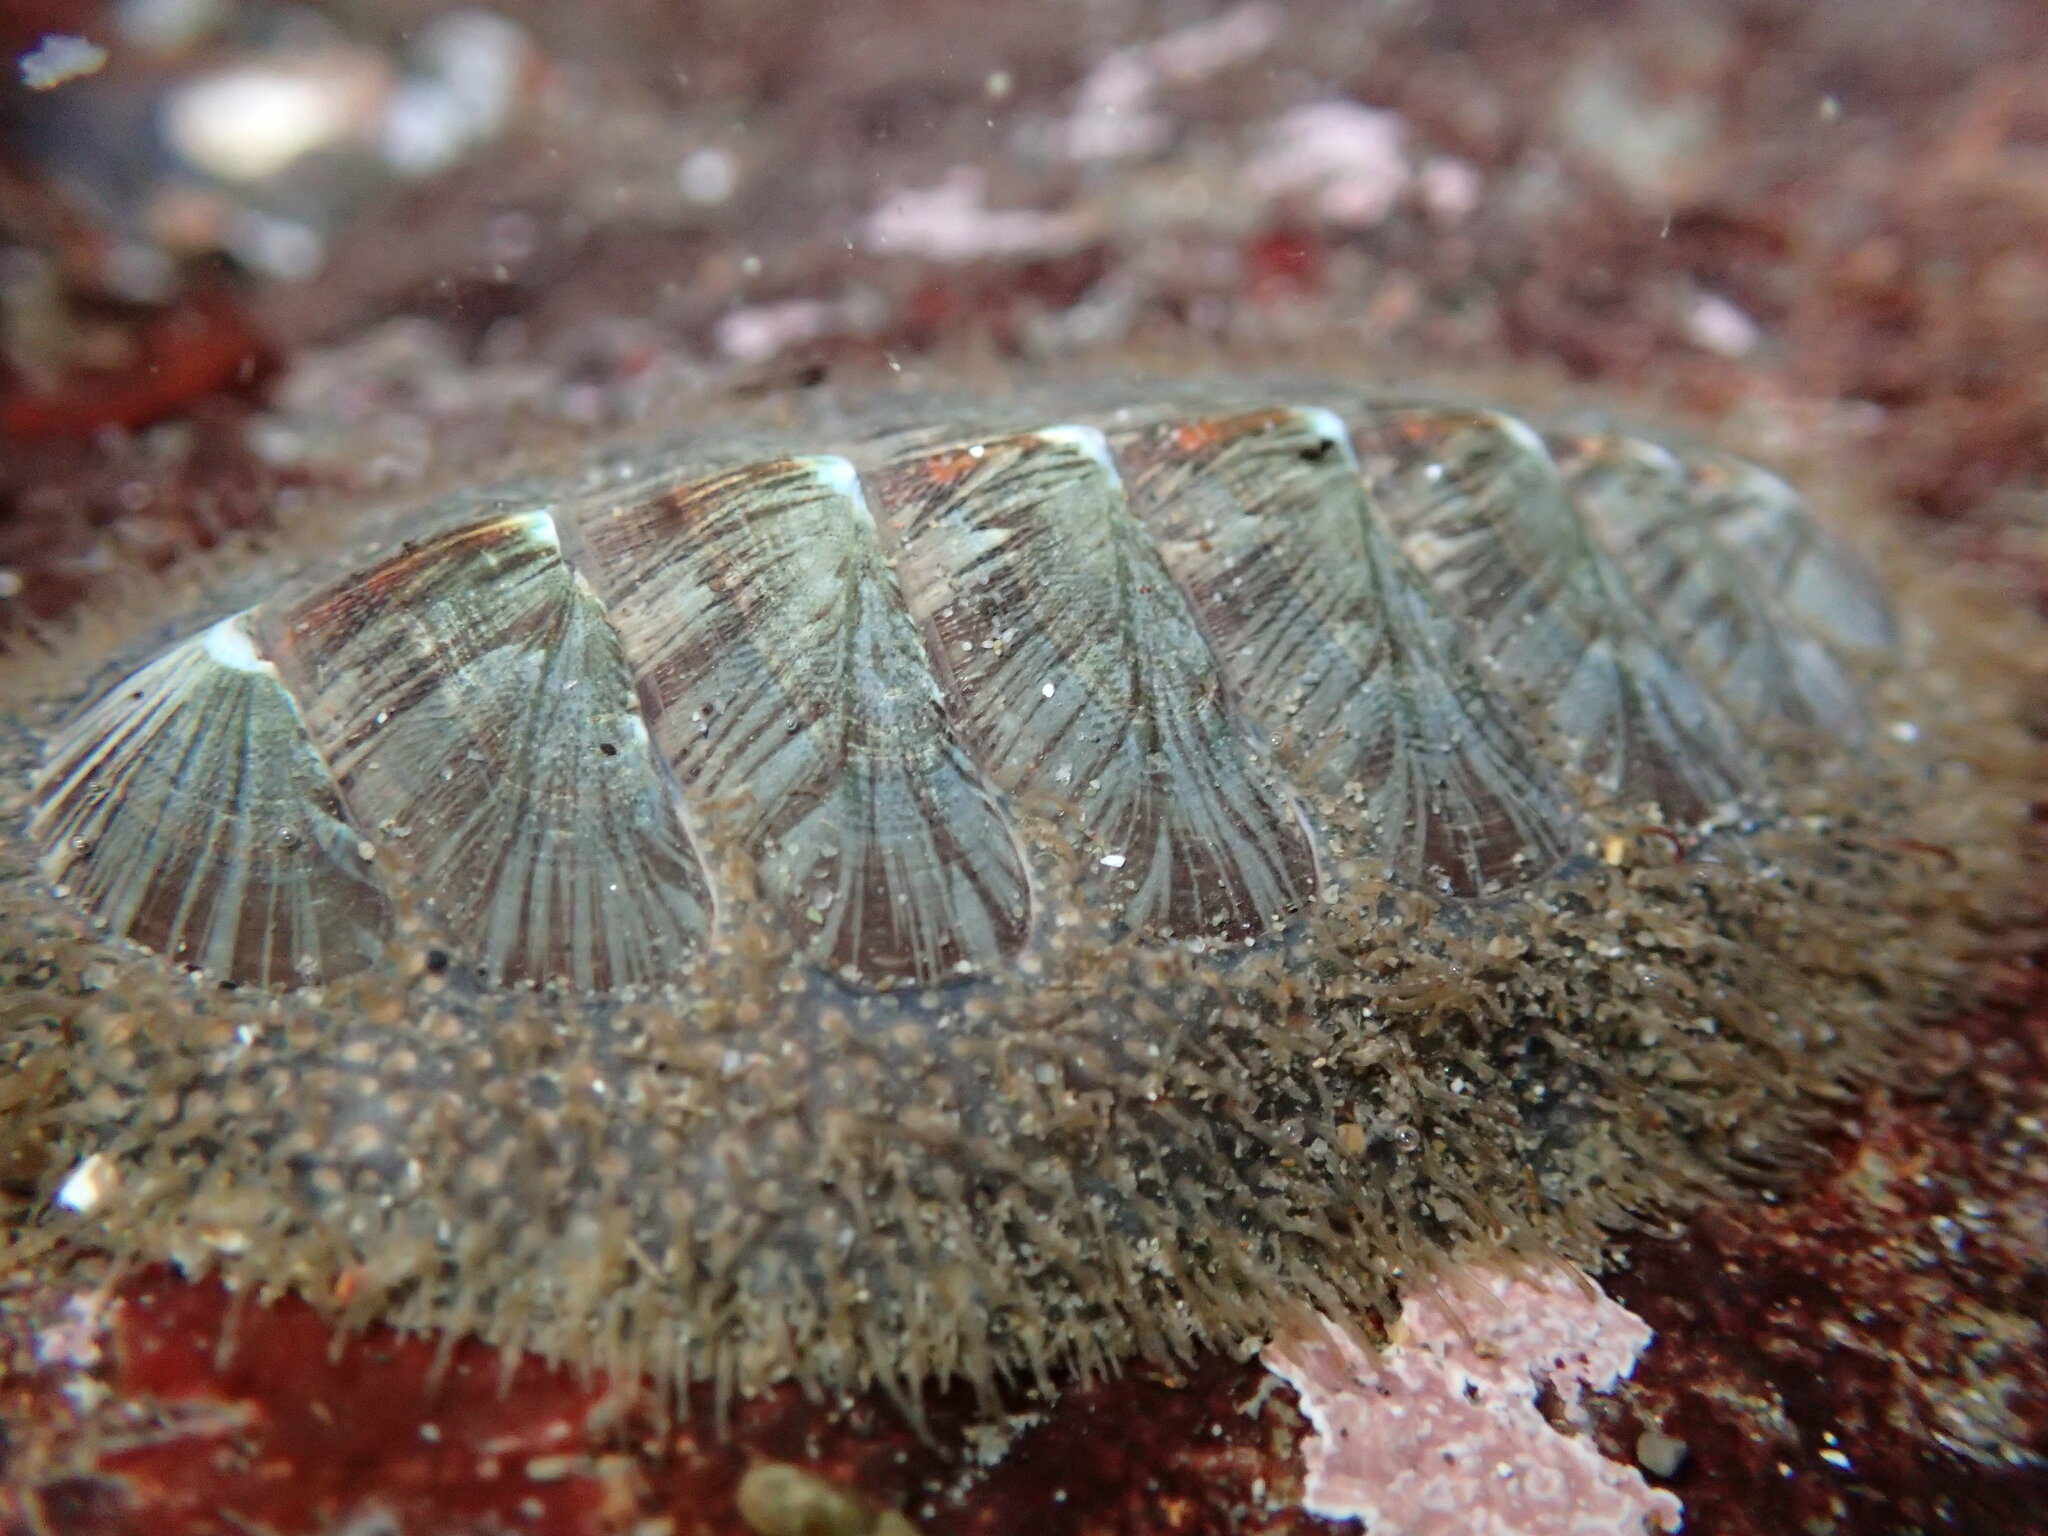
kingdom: Animalia
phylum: Mollusca
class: Polyplacophora
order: Chitonida
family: Mopaliidae
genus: Mopalia
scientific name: Mopalia lignosa
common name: Woody chiton
